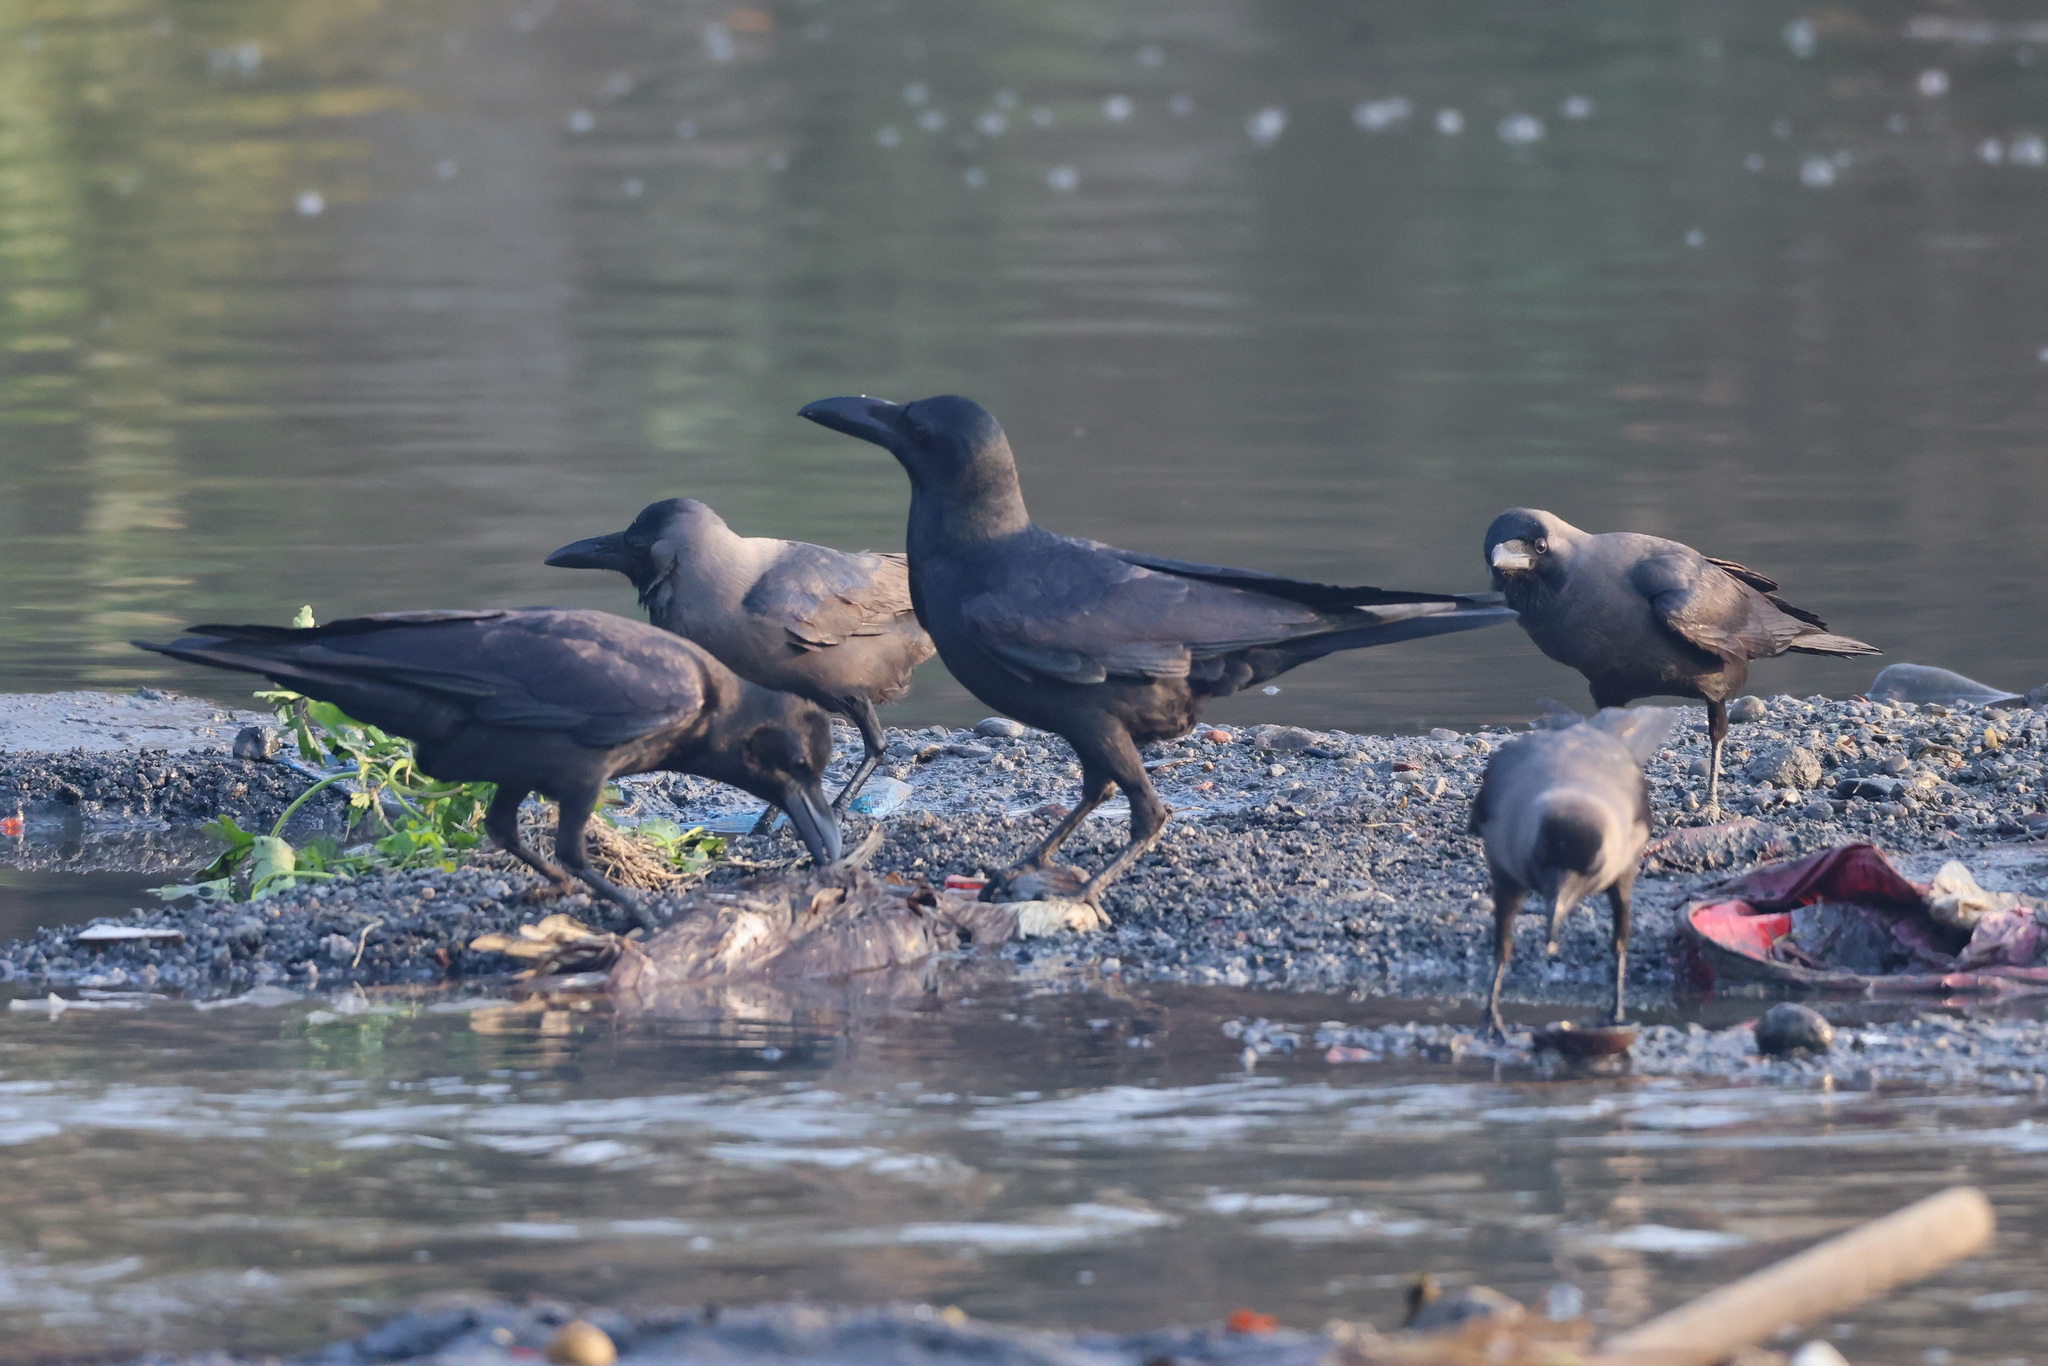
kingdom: Animalia
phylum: Chordata
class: Aves
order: Passeriformes
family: Corvidae
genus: Corvus
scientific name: Corvus macrorhynchos
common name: Large-billed crow
